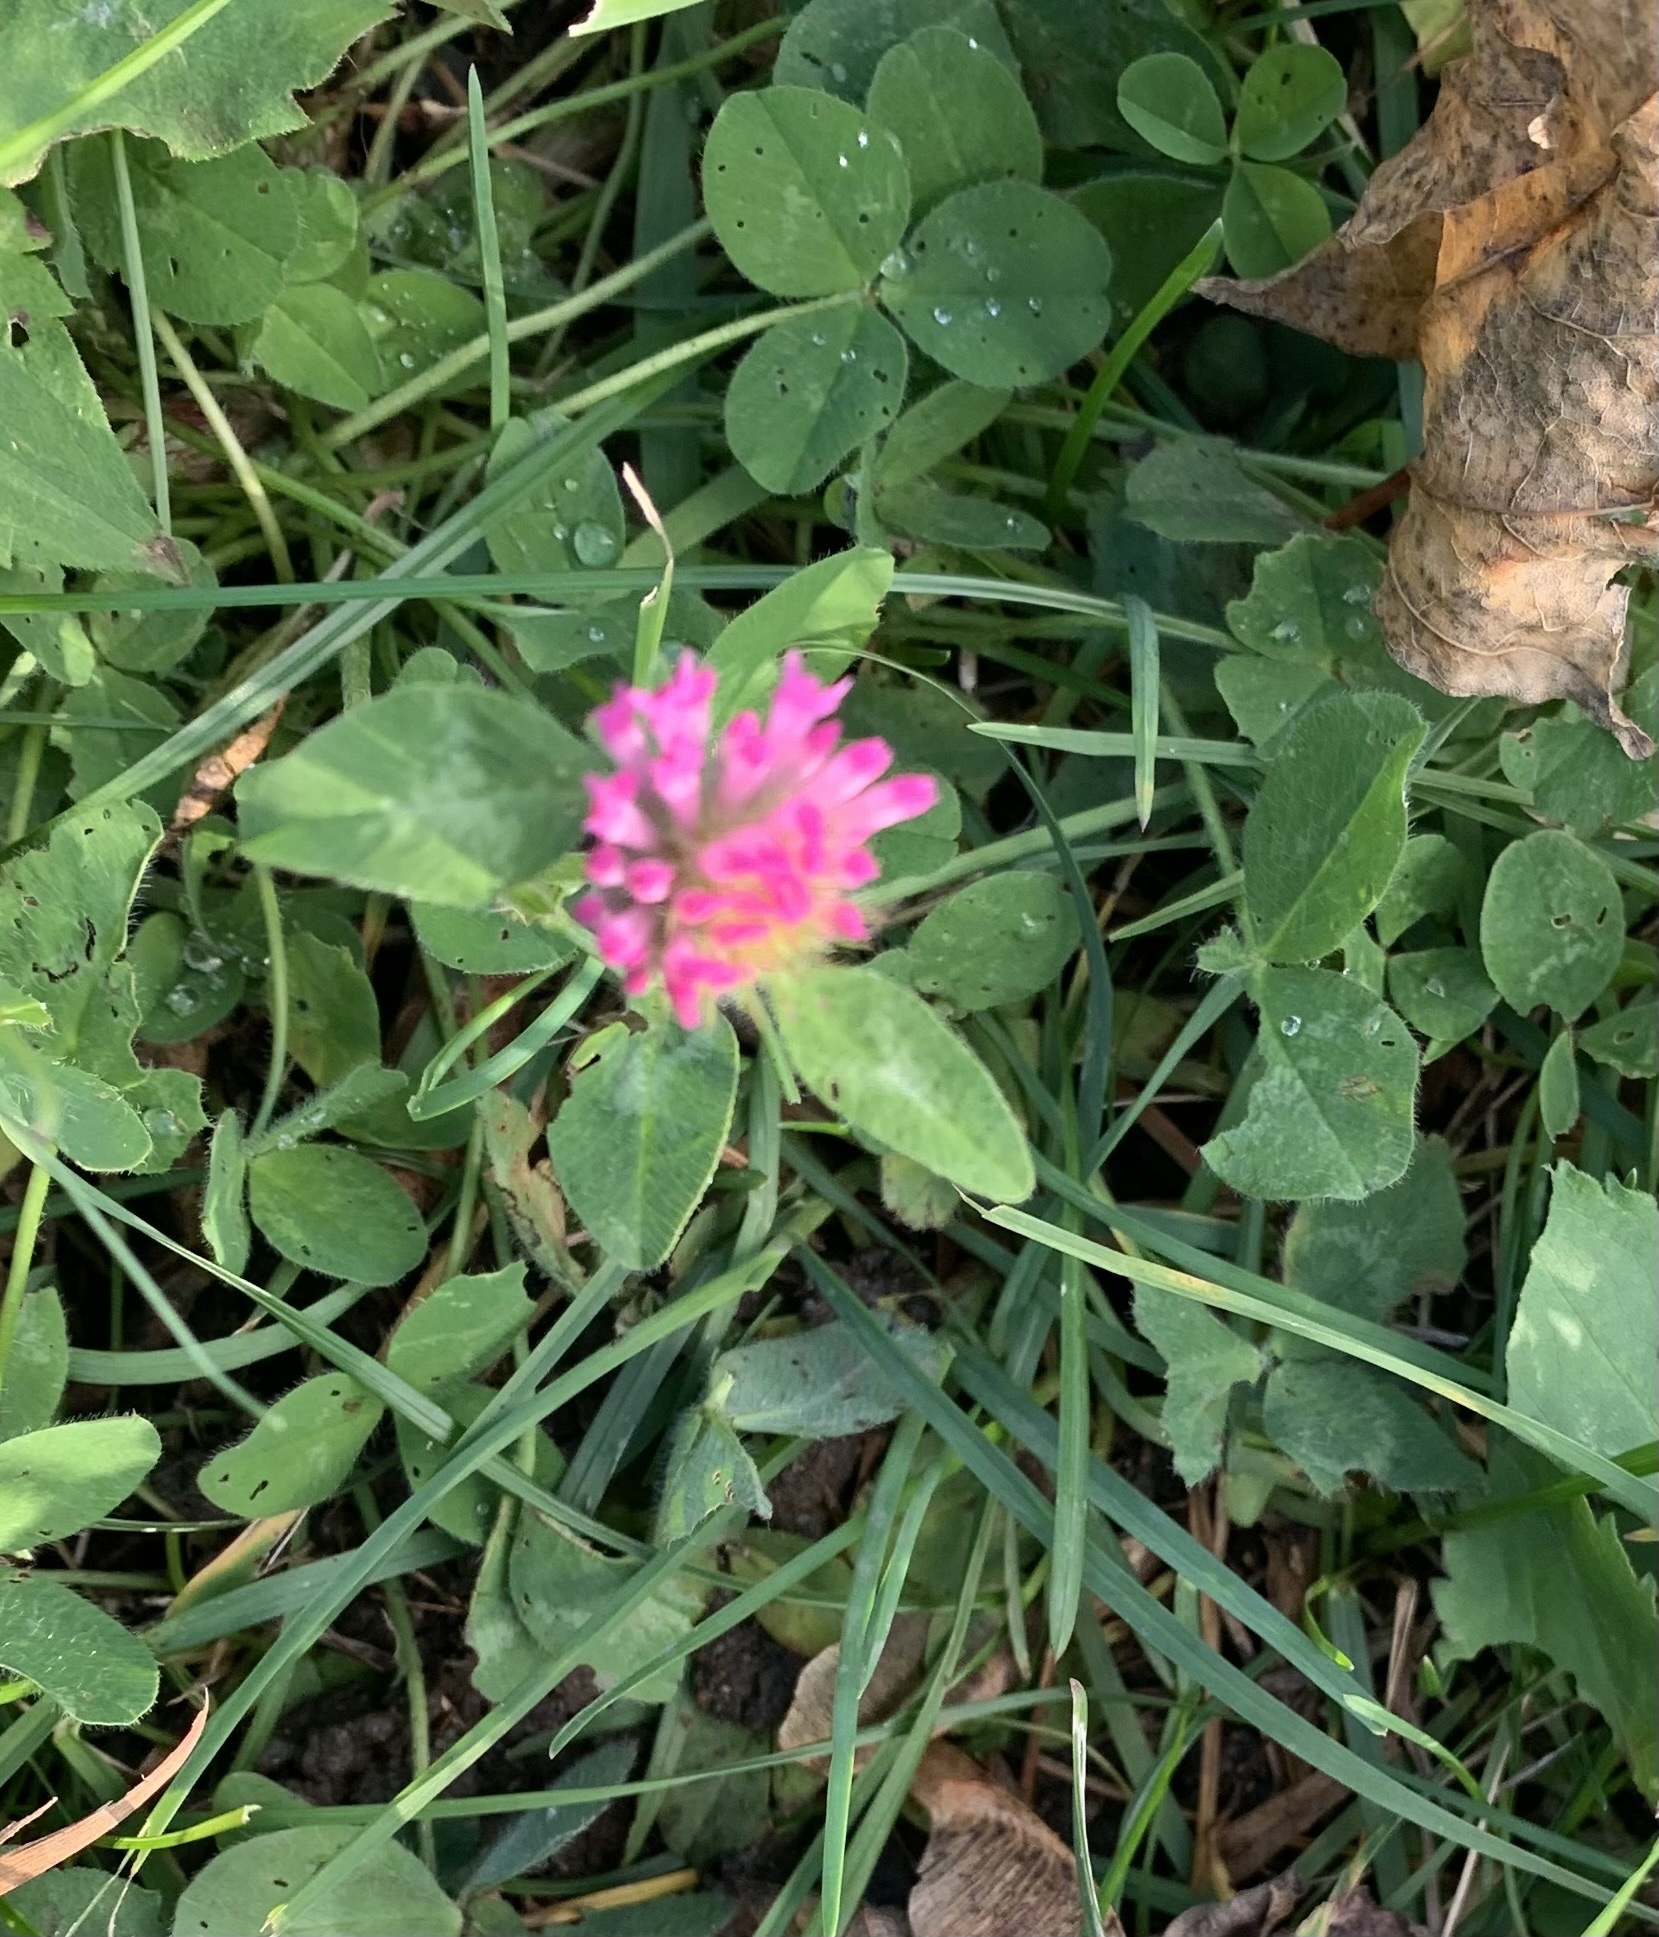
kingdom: Plantae
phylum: Tracheophyta
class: Magnoliopsida
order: Fabales
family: Fabaceae
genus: Trifolium
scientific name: Trifolium pratense
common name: Red clover
